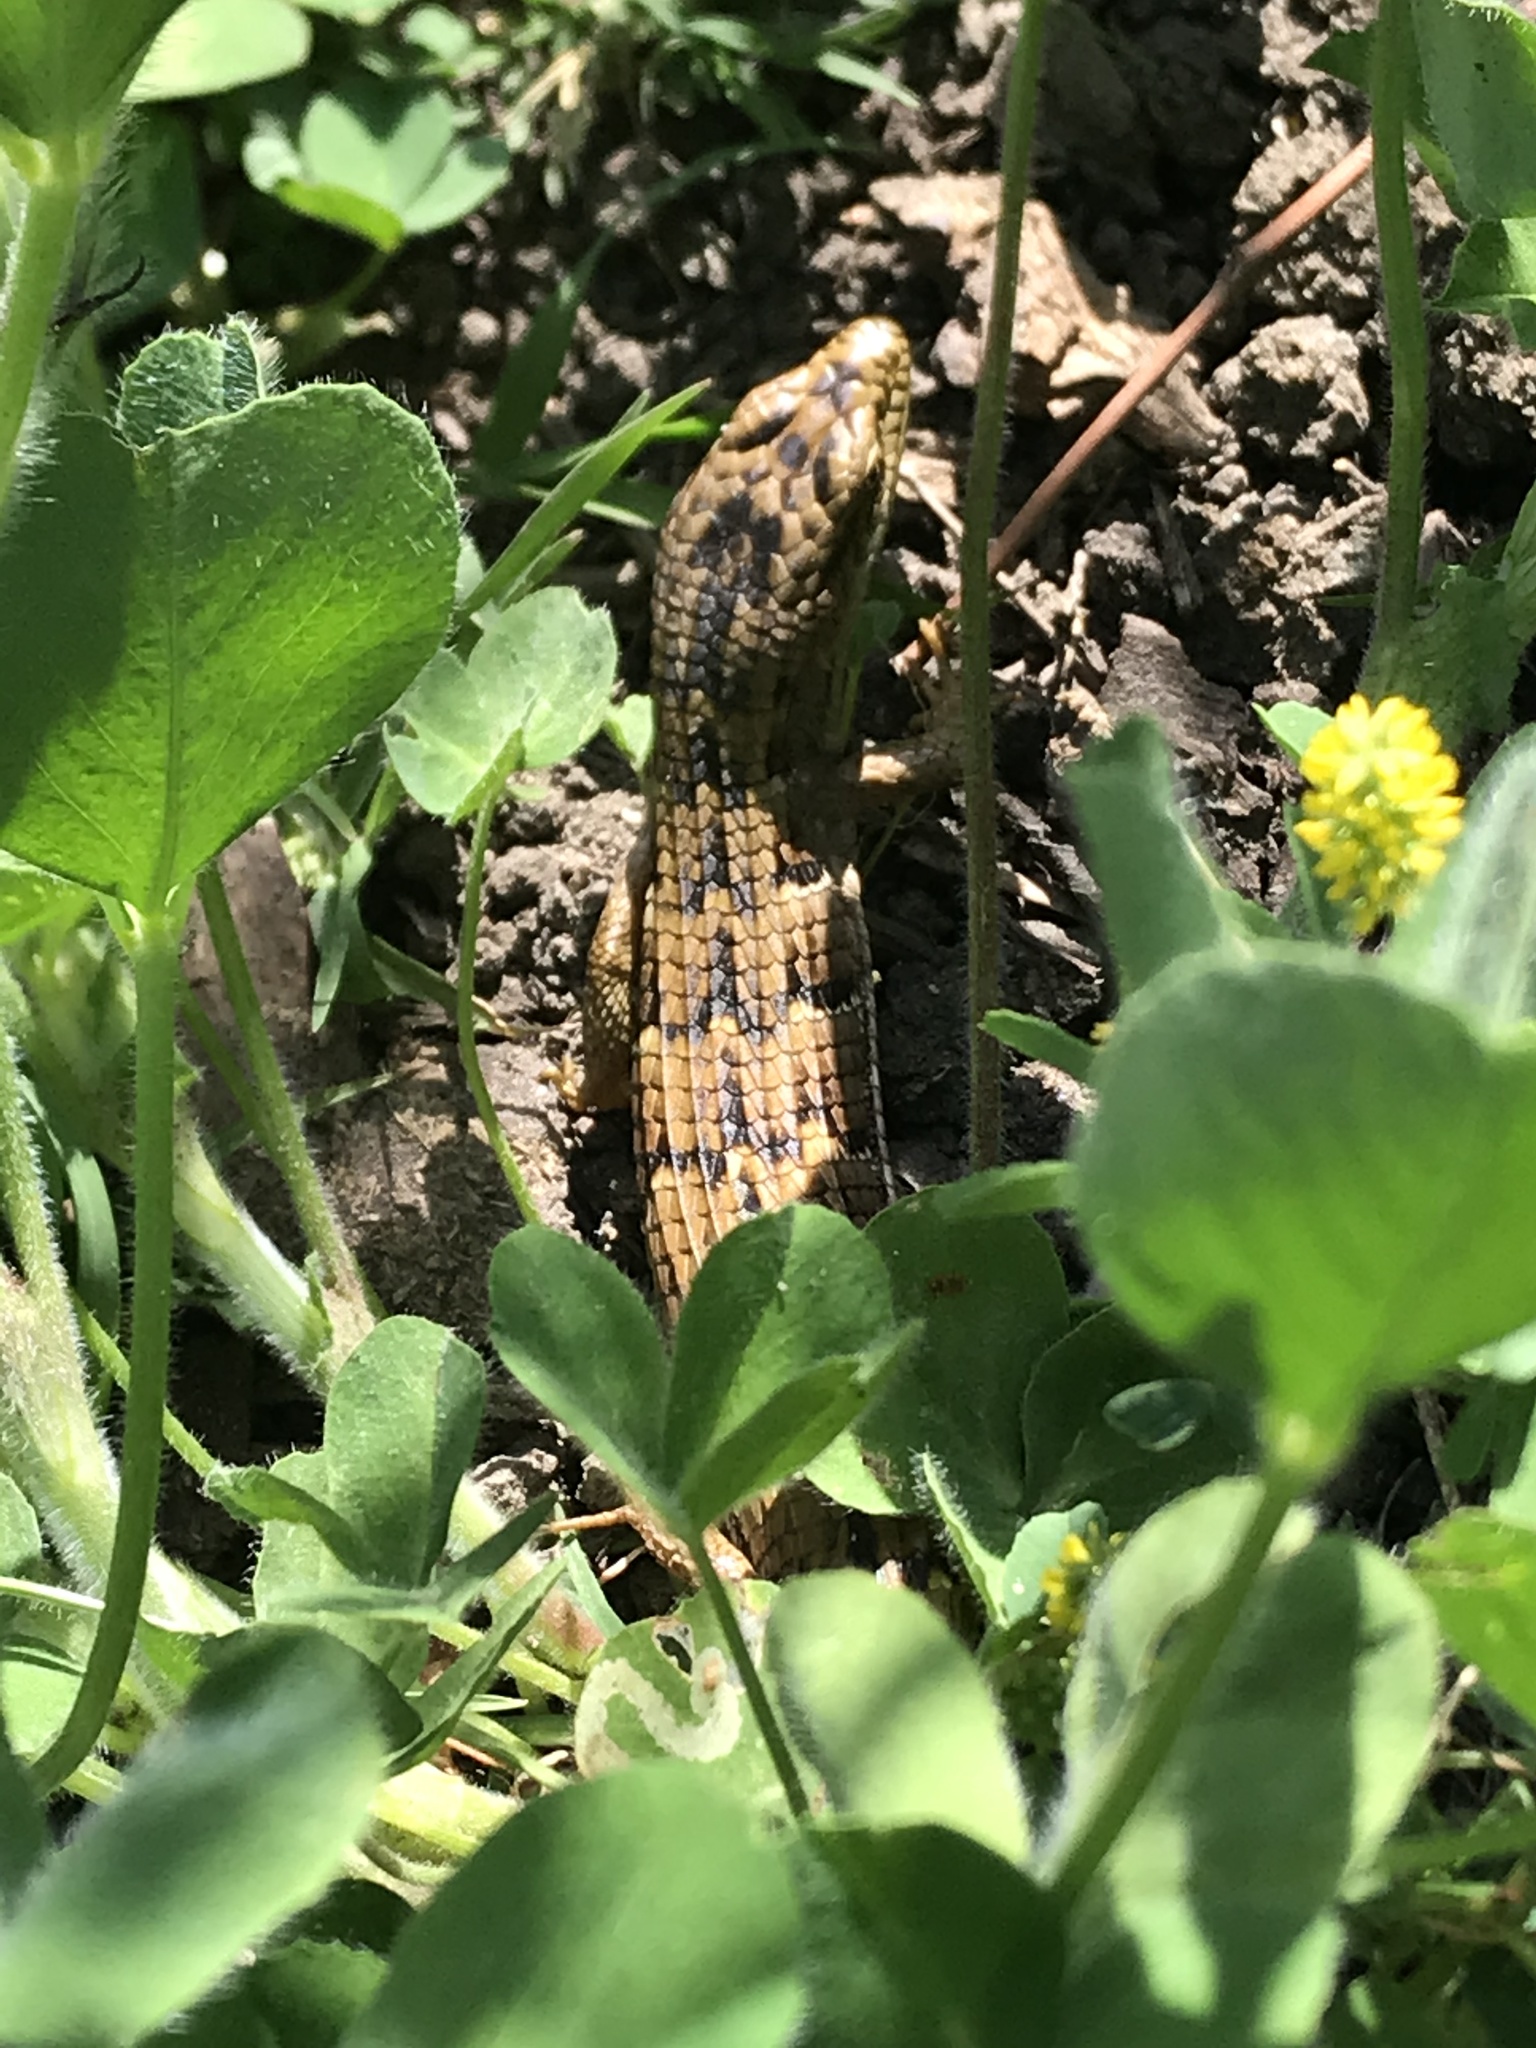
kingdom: Animalia
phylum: Chordata
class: Squamata
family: Anguidae
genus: Elgaria
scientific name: Elgaria multicarinata
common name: Southern alligator lizard
